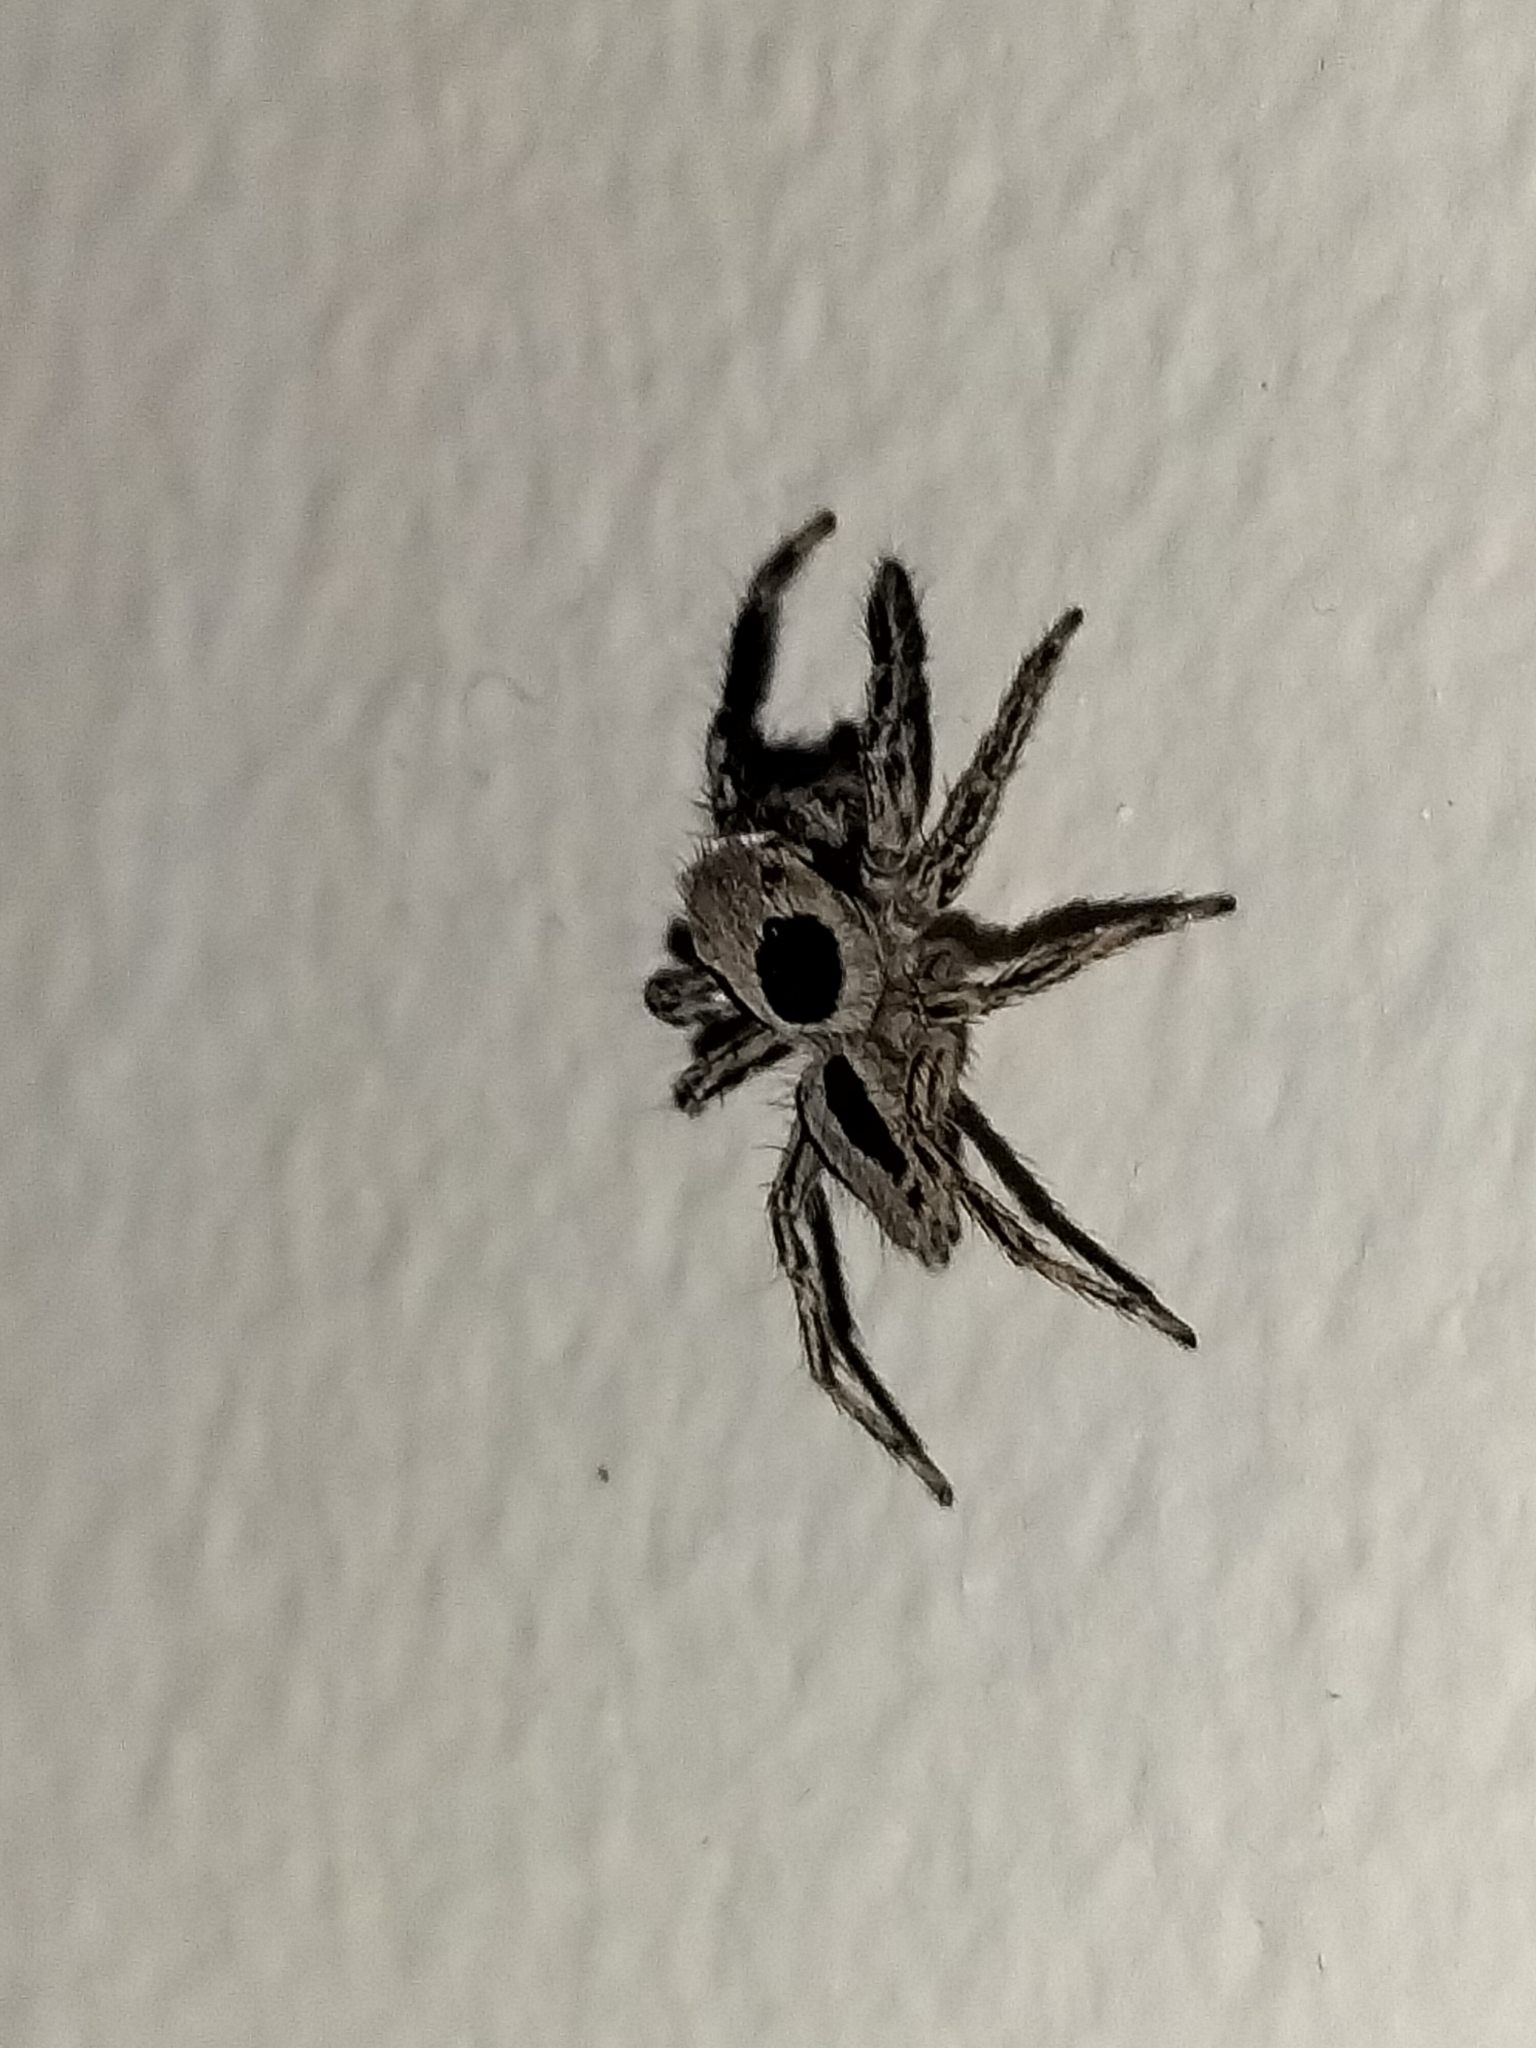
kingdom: Animalia
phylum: Arthropoda
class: Arachnida
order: Araneae
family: Salticidae
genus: Plexippus
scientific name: Plexippus petersi
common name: Jumping spider
